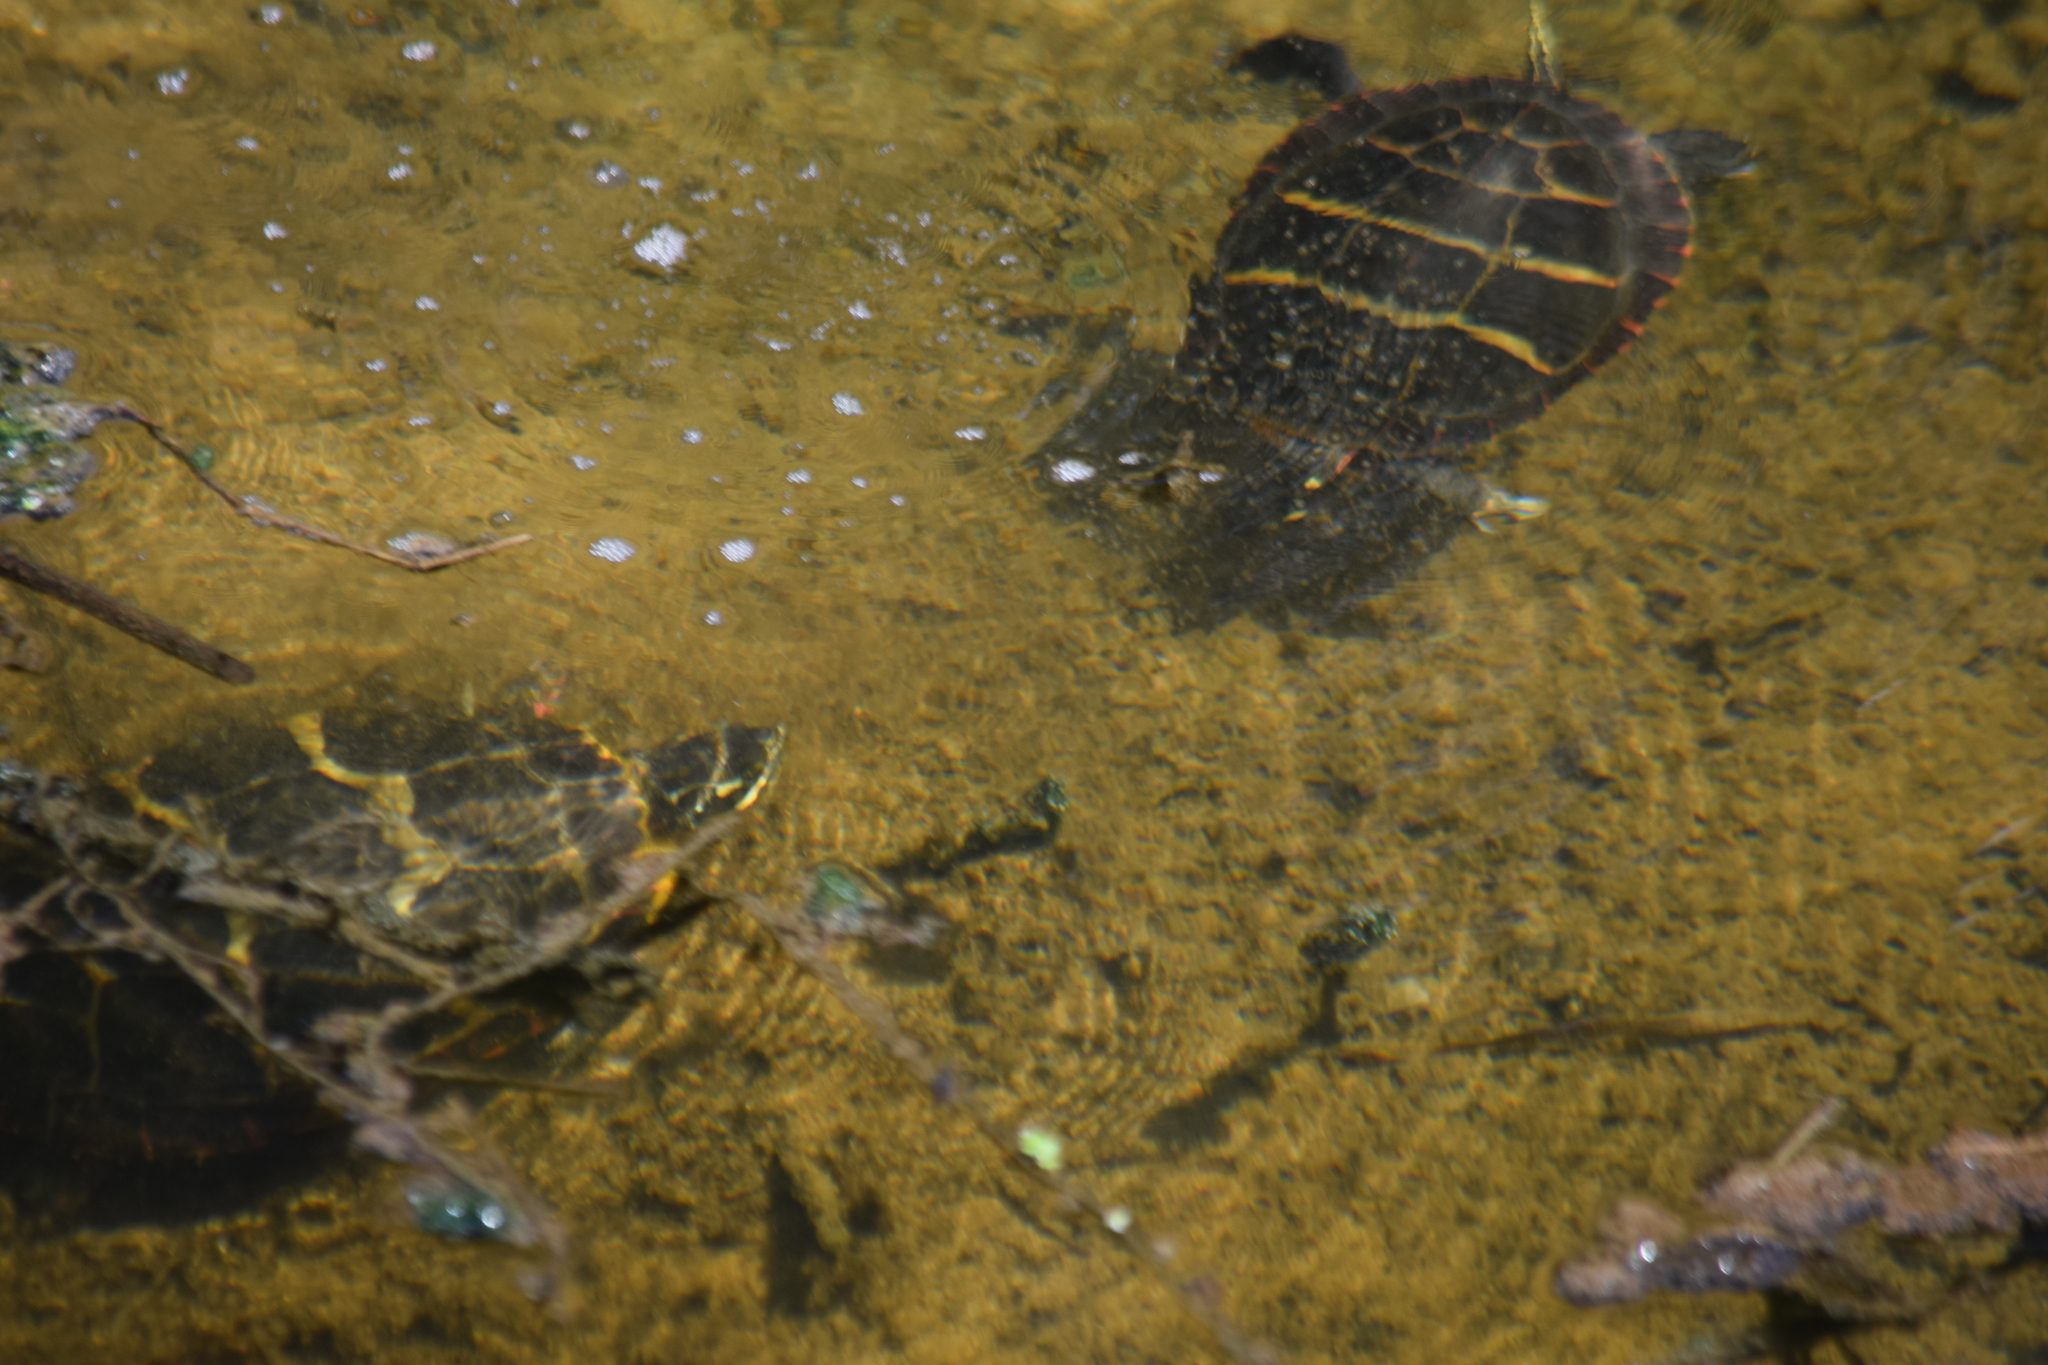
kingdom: Animalia
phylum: Chordata
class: Testudines
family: Emydidae
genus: Chrysemys
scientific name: Chrysemys picta
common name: Painted turtle
